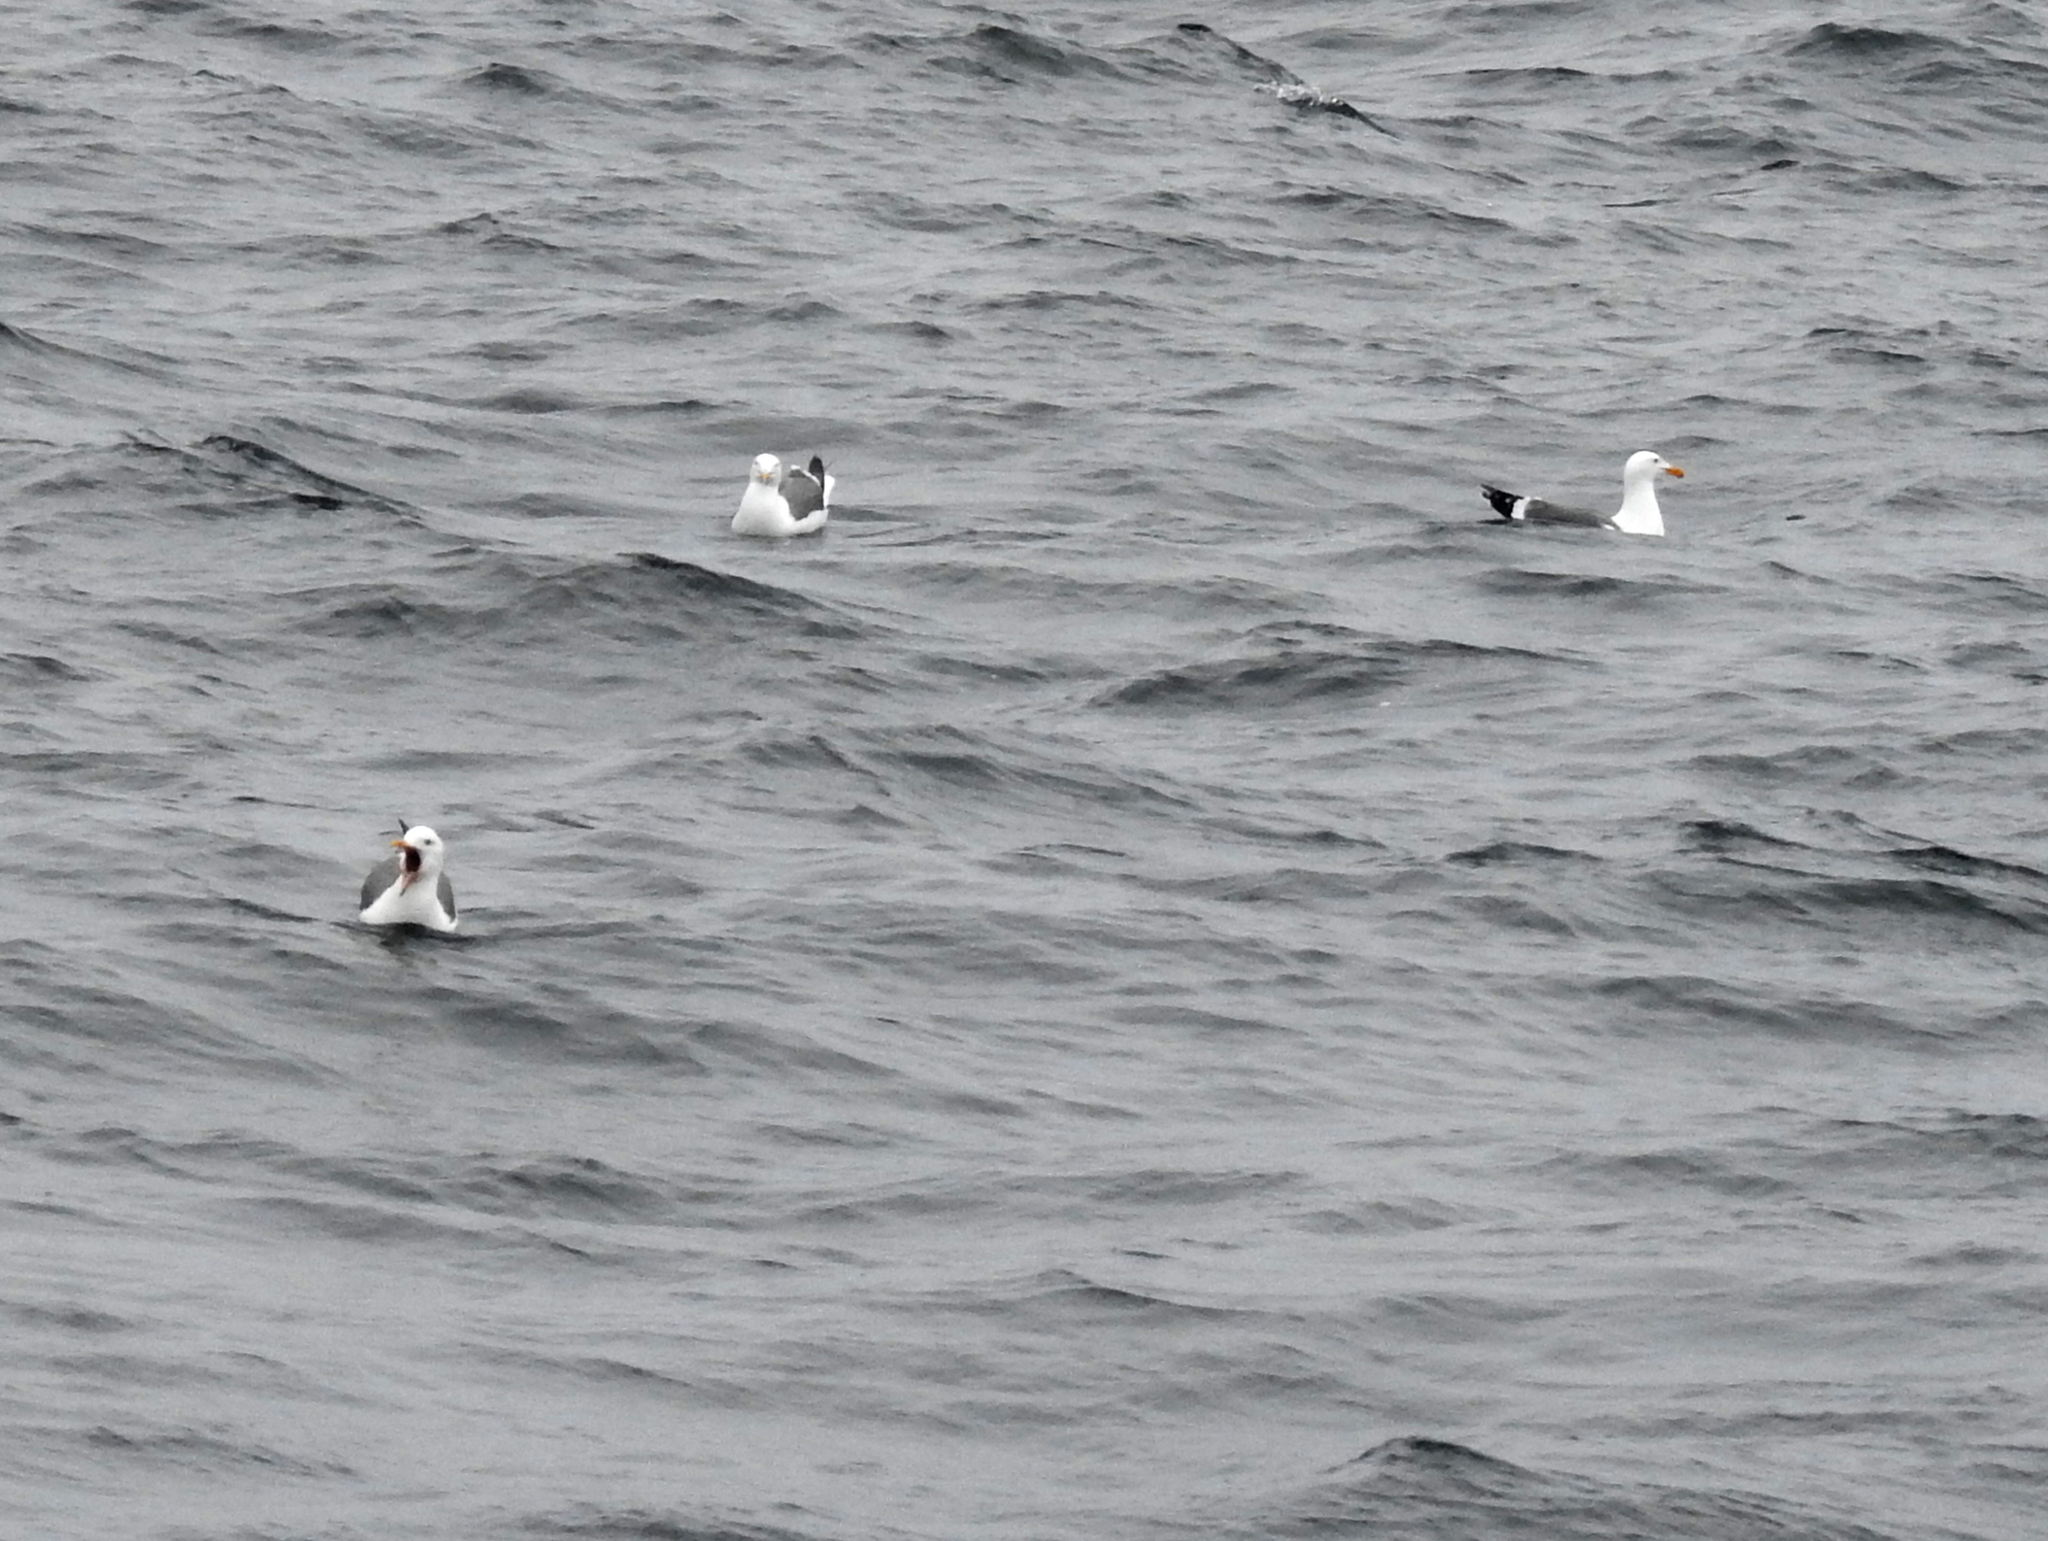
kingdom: Animalia
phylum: Chordata
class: Aves
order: Charadriiformes
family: Laridae
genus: Larus
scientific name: Larus occidentalis
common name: Western gull
